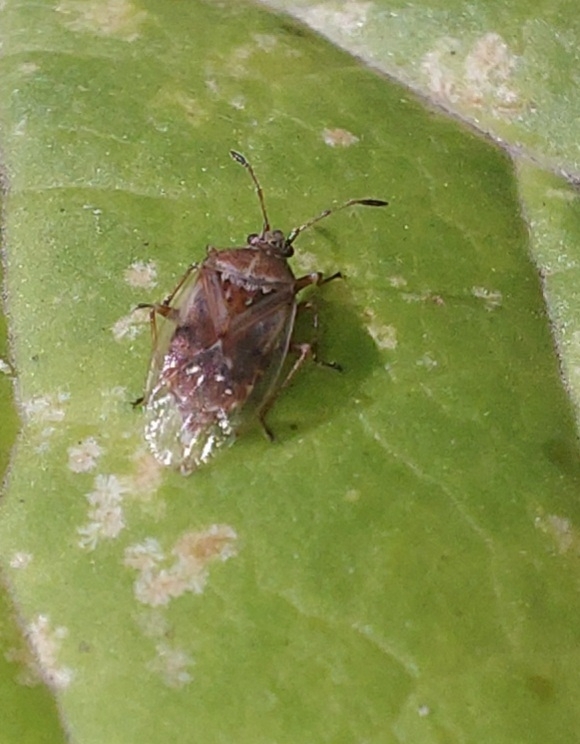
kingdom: Animalia
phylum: Arthropoda
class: Insecta
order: Hemiptera
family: Lygaeidae
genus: Kleidocerys
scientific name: Kleidocerys resedae
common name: Birch catkin bug
